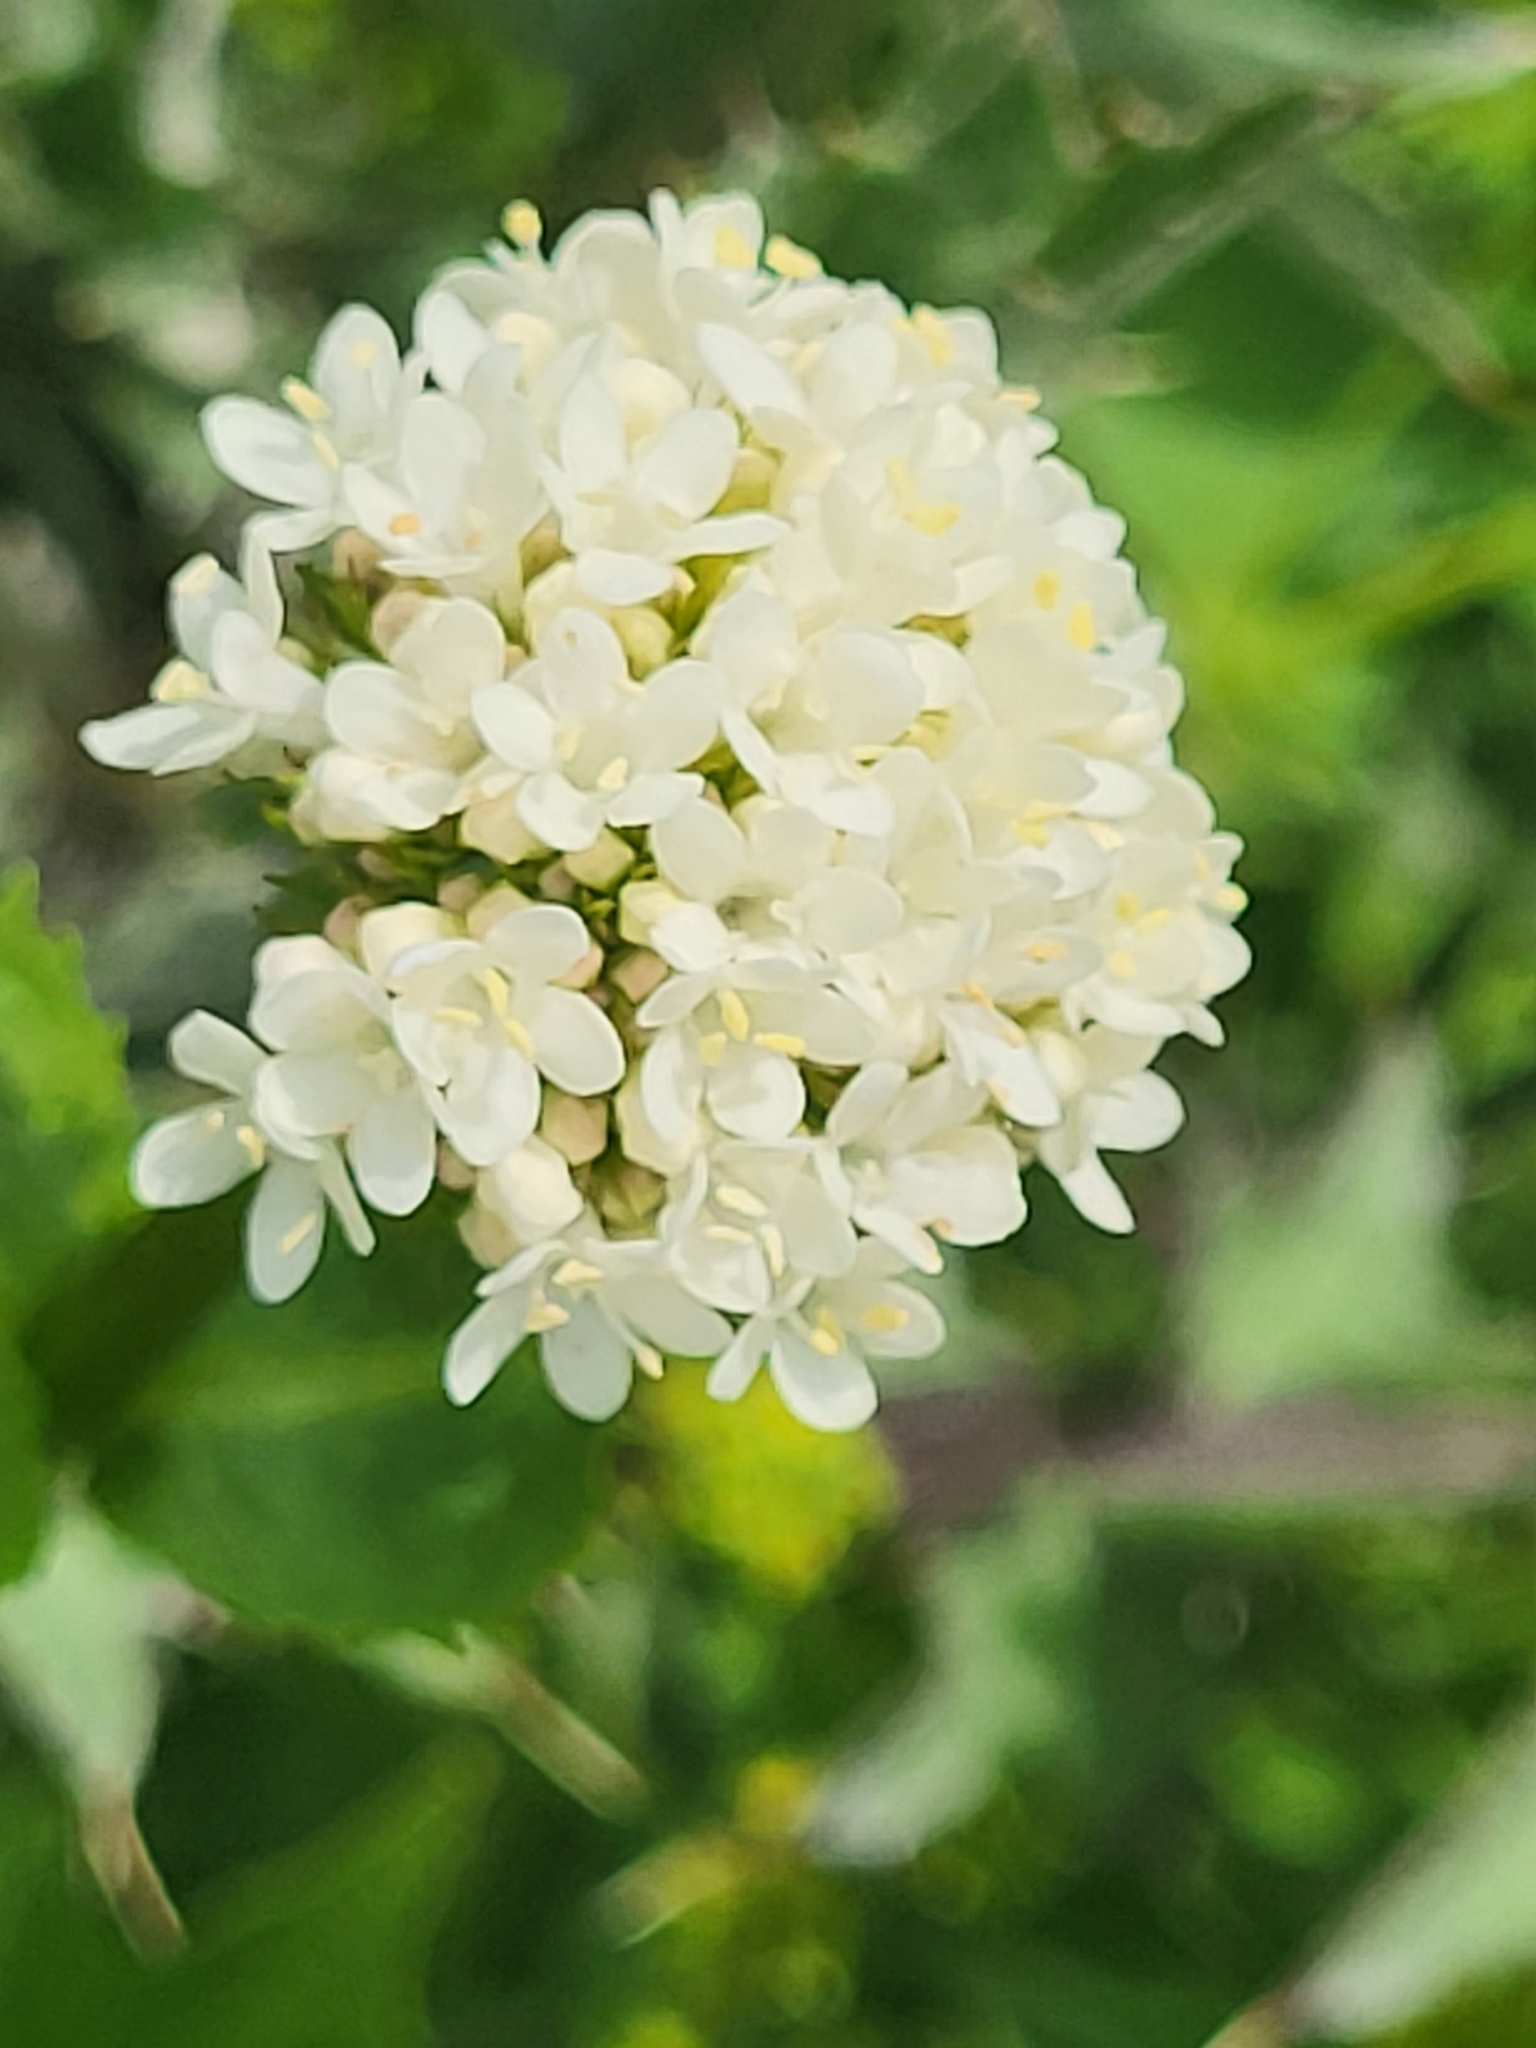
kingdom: Plantae
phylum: Tracheophyta
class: Magnoliopsida
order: Dipsacales
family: Caprifoliaceae
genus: Valeriana
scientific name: Valeriana alliariifolia
